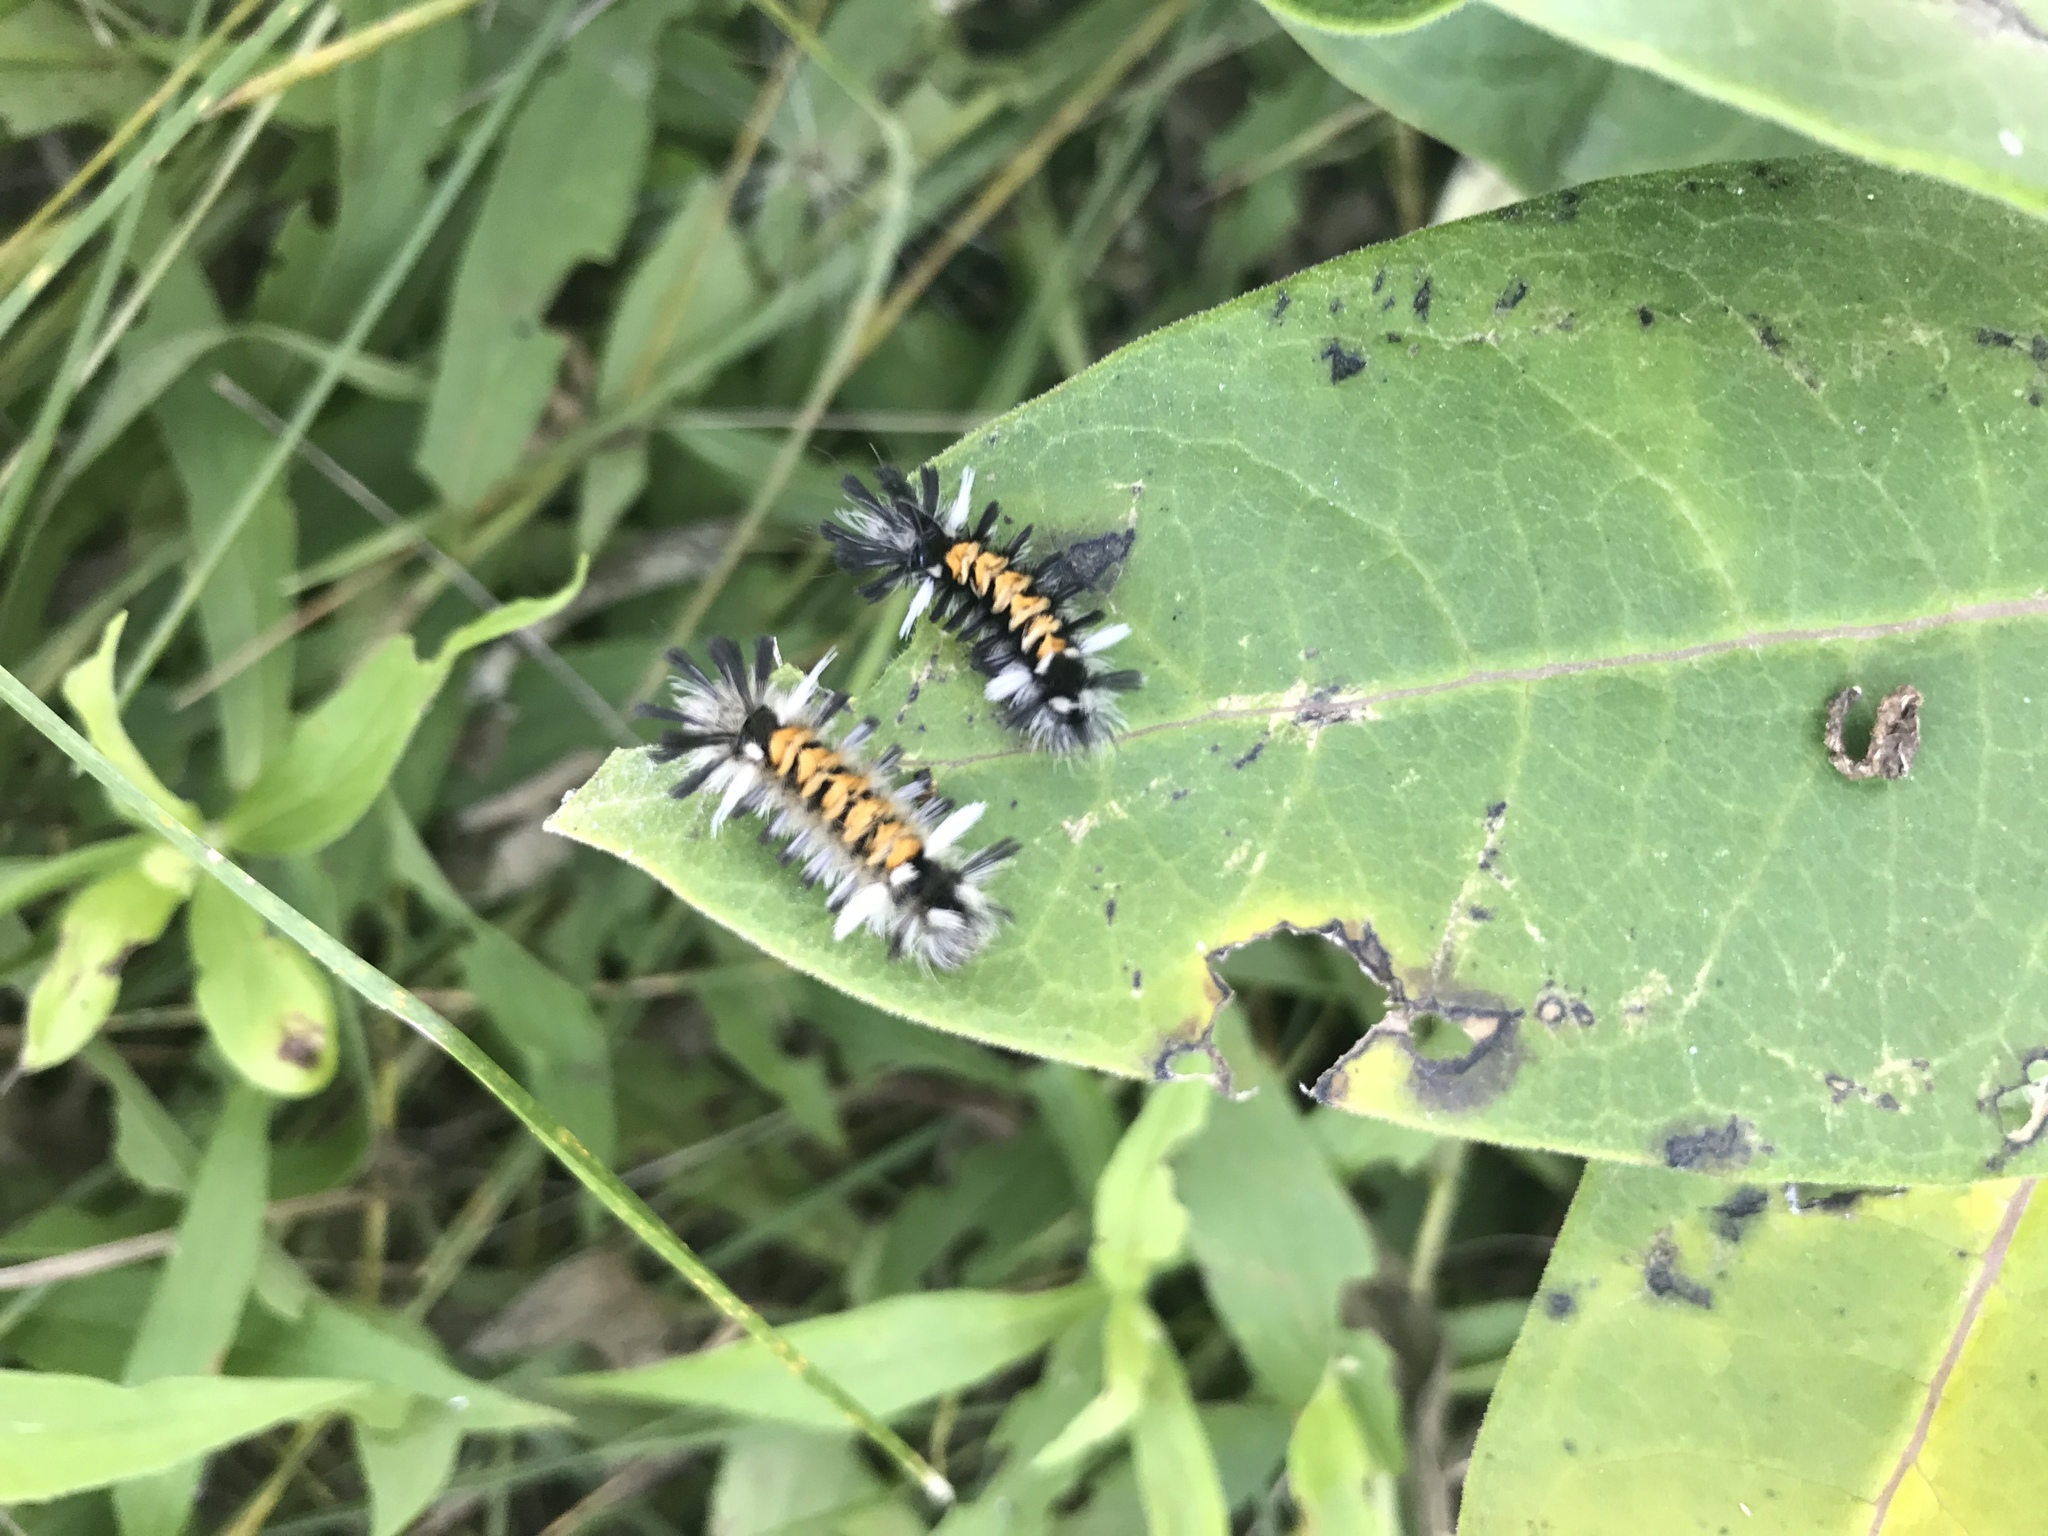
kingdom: Animalia
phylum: Arthropoda
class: Insecta
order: Lepidoptera
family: Erebidae
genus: Euchaetes
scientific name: Euchaetes egle
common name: Milkweed tussock moth
